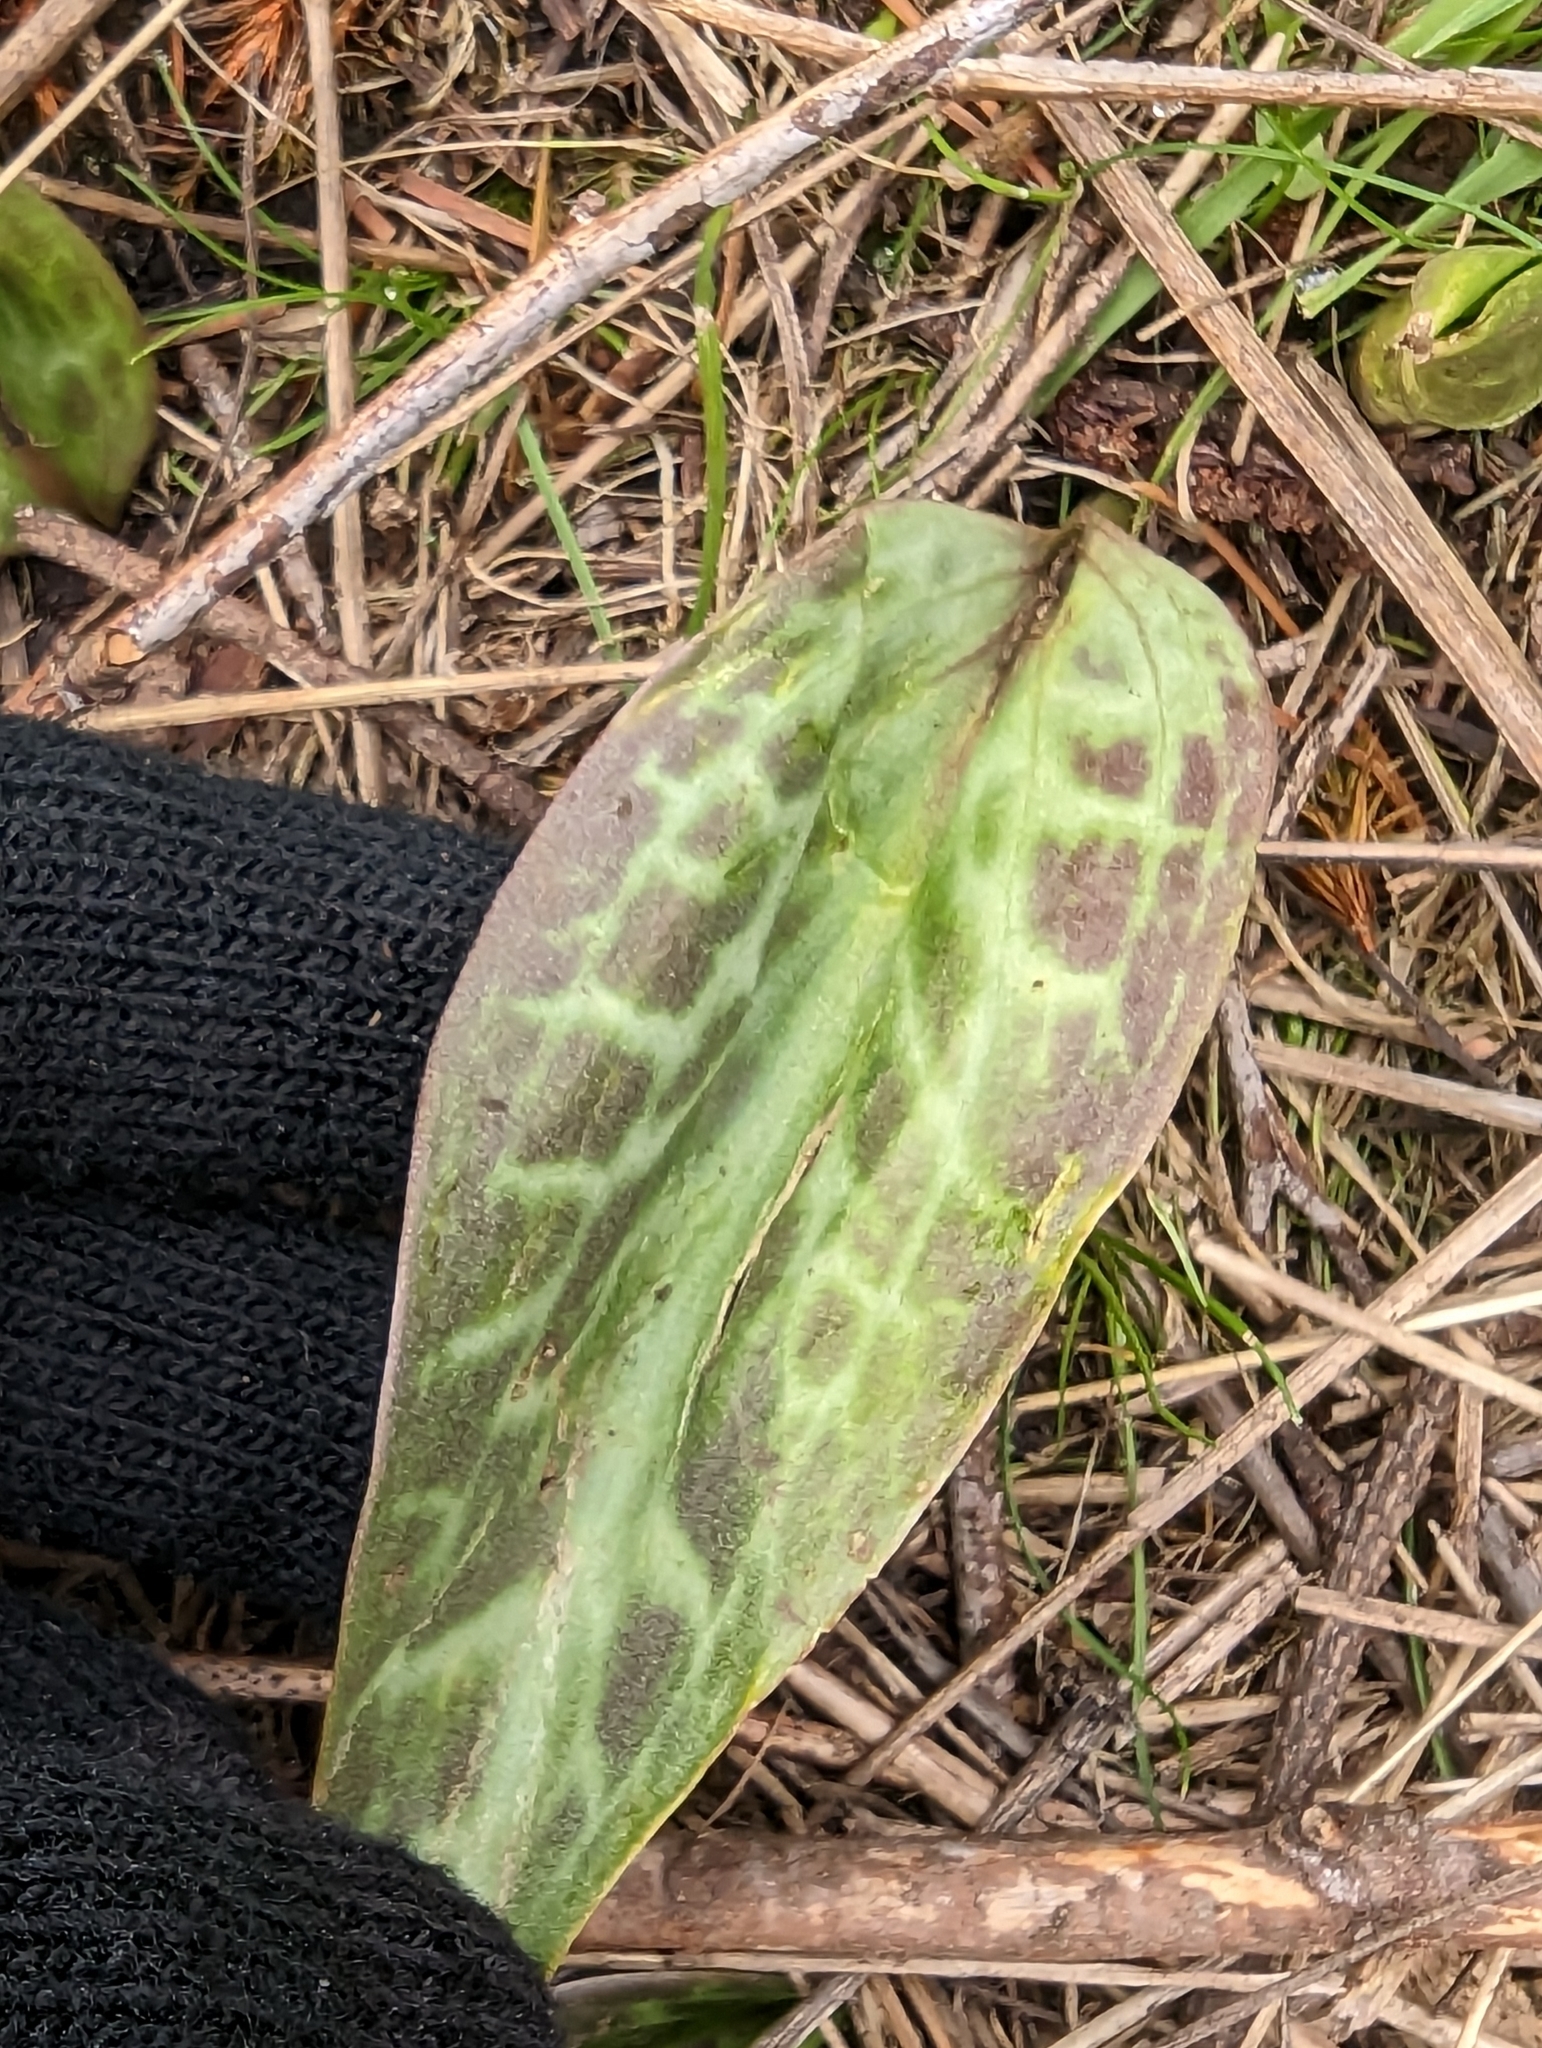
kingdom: Plantae
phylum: Tracheophyta
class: Liliopsida
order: Liliales
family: Liliaceae
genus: Erythronium
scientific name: Erythronium oregonum
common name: Giant adder's-tongue
